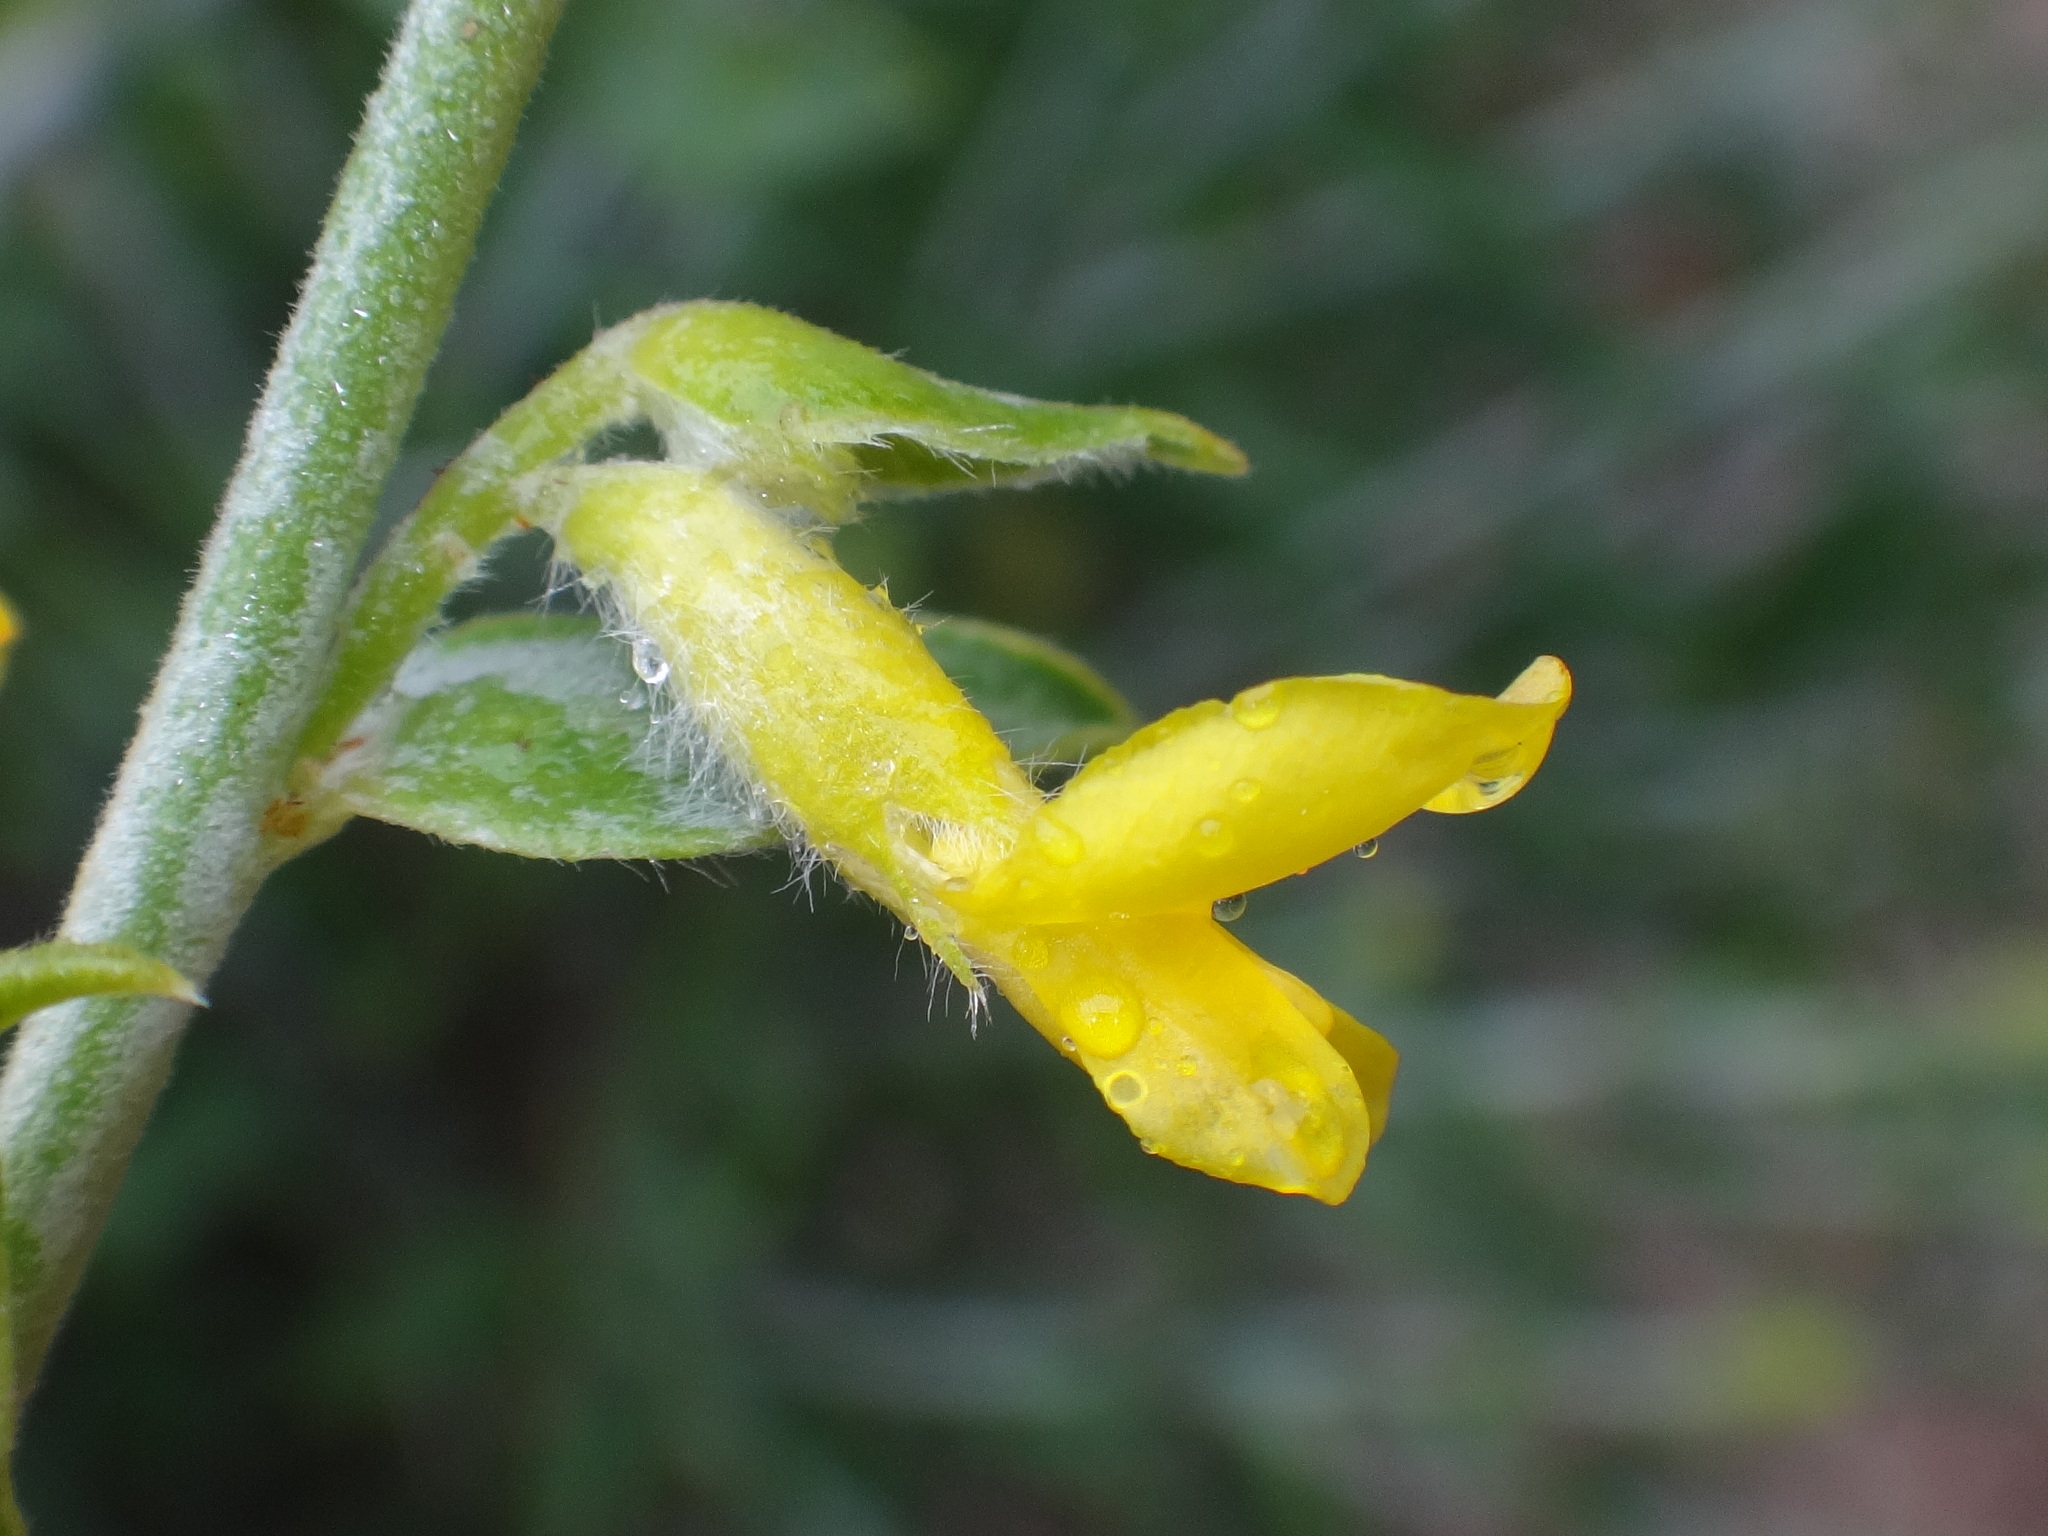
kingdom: Plantae
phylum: Tracheophyta
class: Magnoliopsida
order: Fabales
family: Fabaceae
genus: Anthyllis
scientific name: Anthyllis cytisoides
